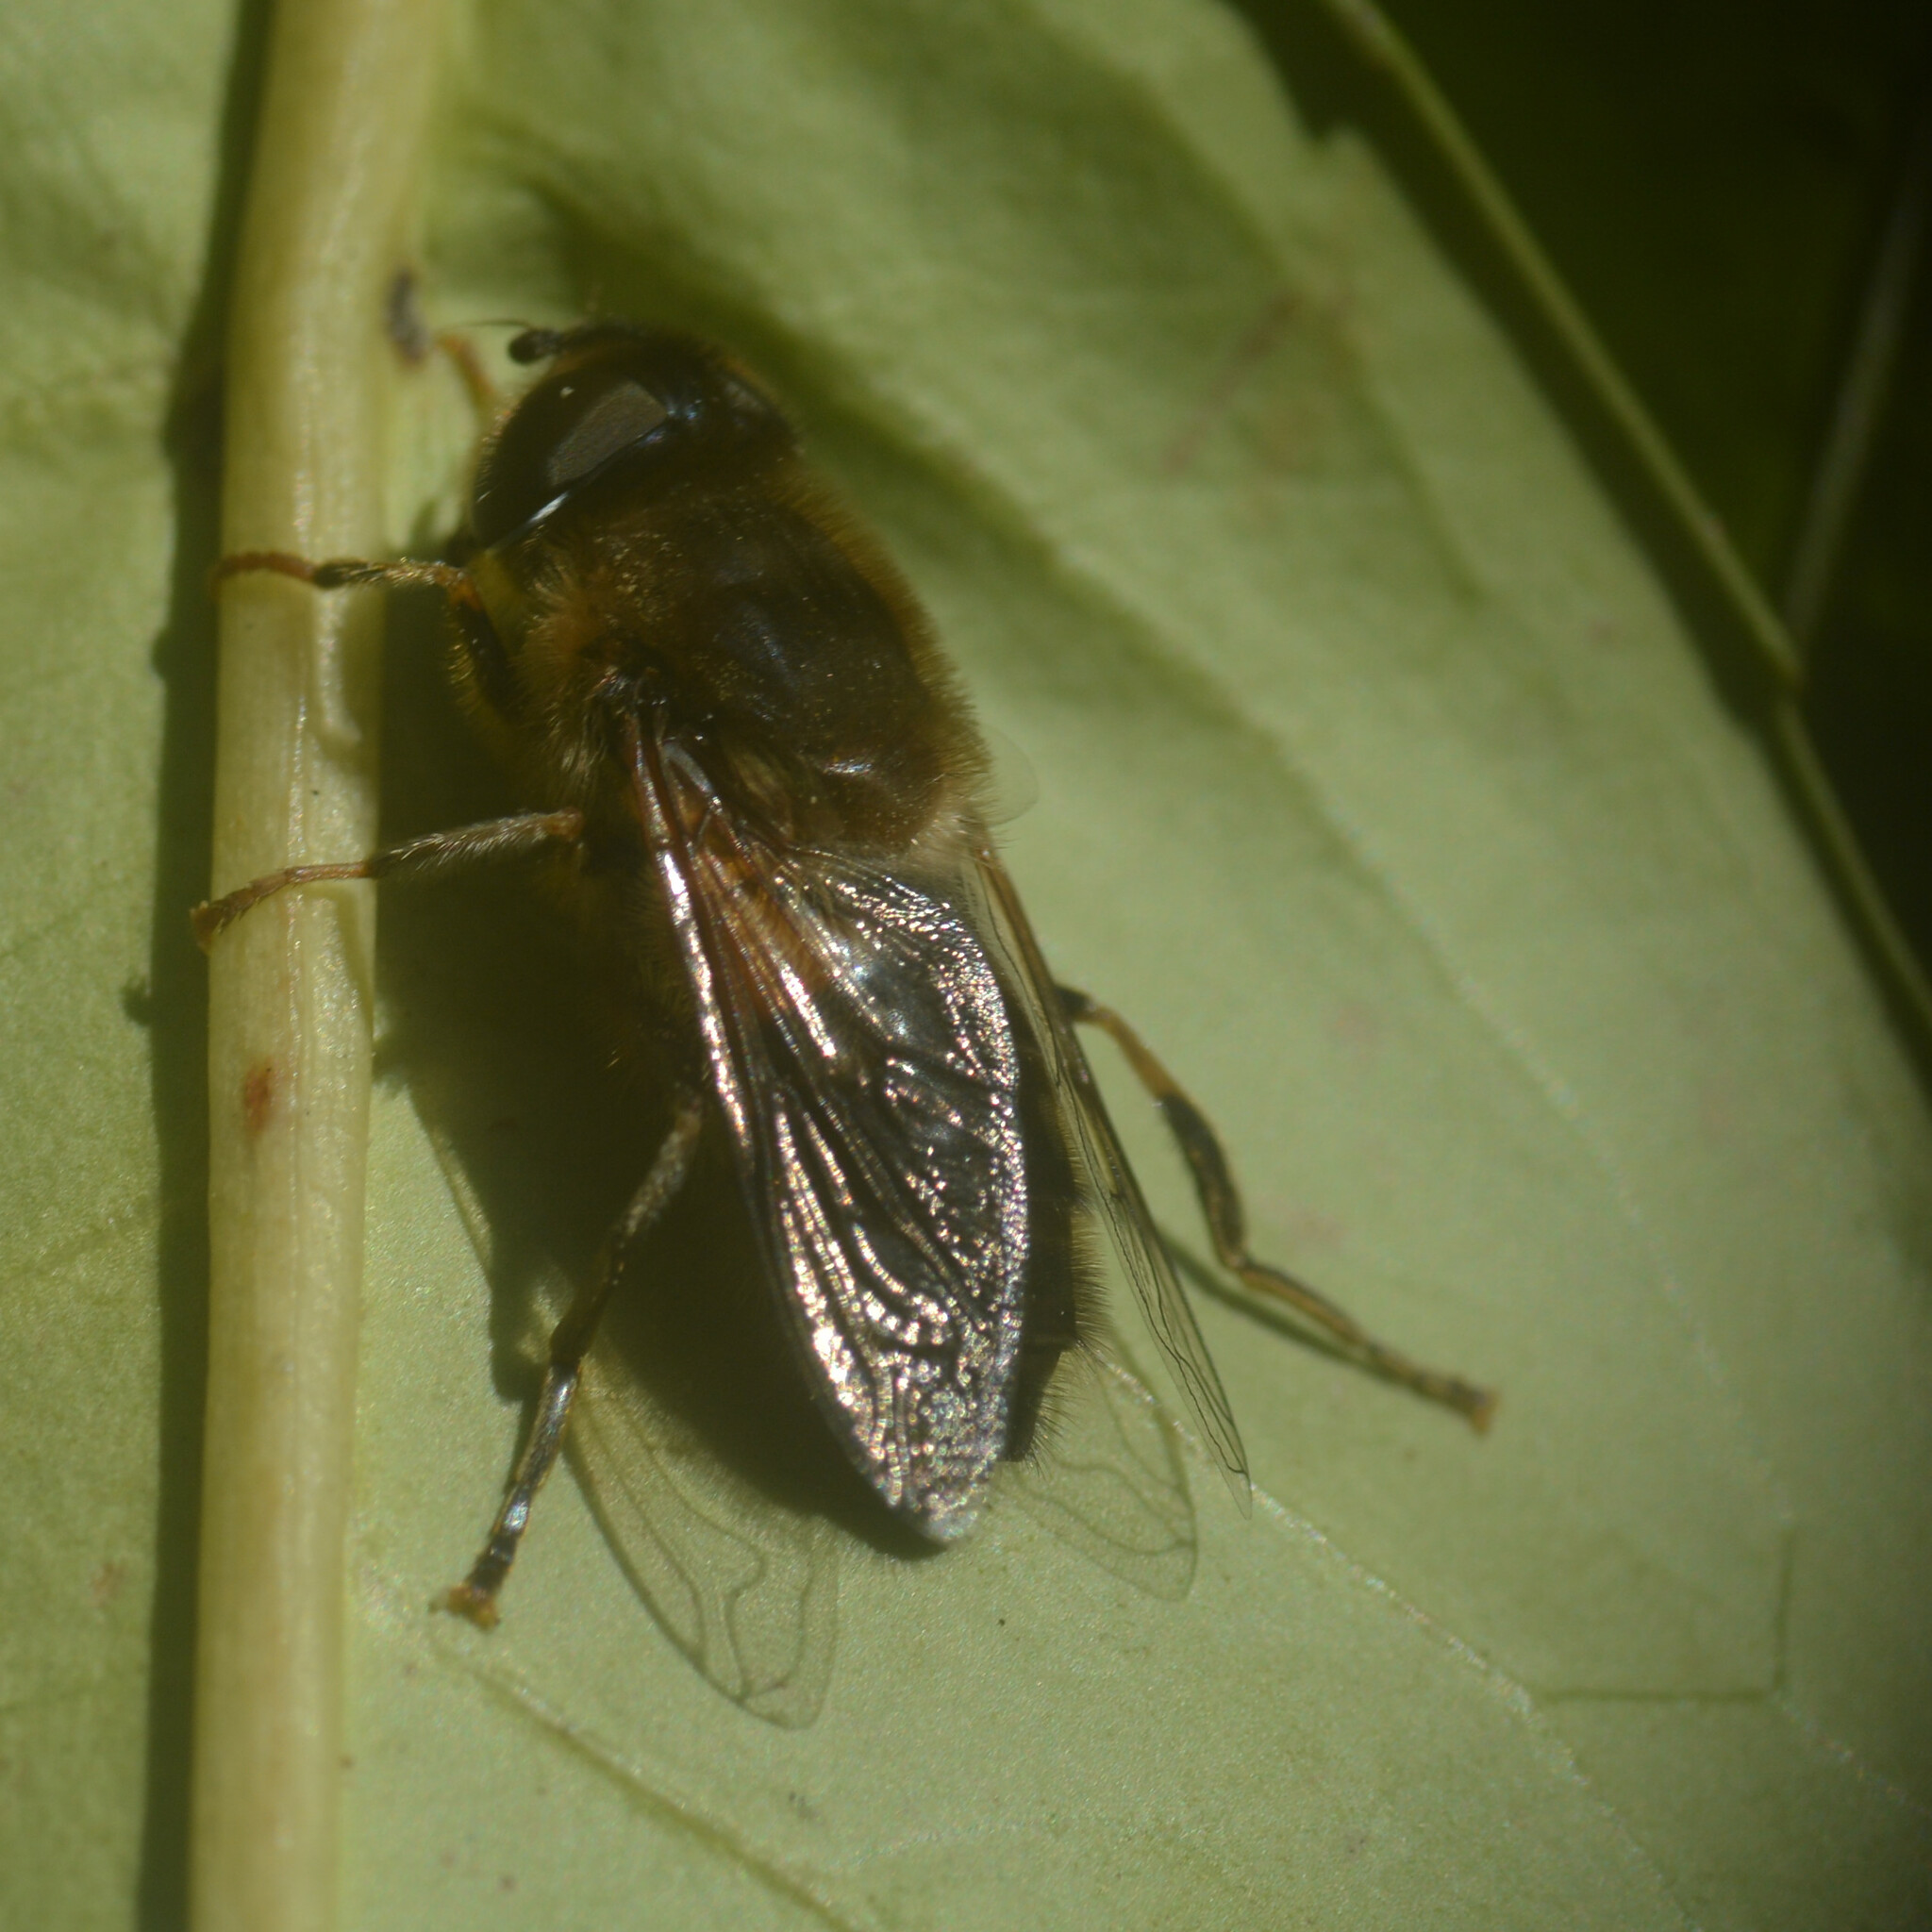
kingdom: Animalia
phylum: Arthropoda
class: Insecta
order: Diptera
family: Syrphidae
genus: Eristalis
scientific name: Eristalis pertinax
